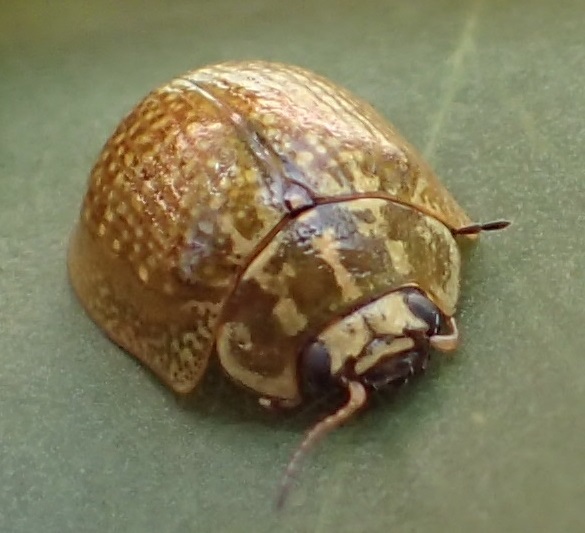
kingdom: Animalia
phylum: Arthropoda
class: Insecta
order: Coleoptera
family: Chrysomelidae
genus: Paropsisterna
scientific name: Paropsisterna cloelia
